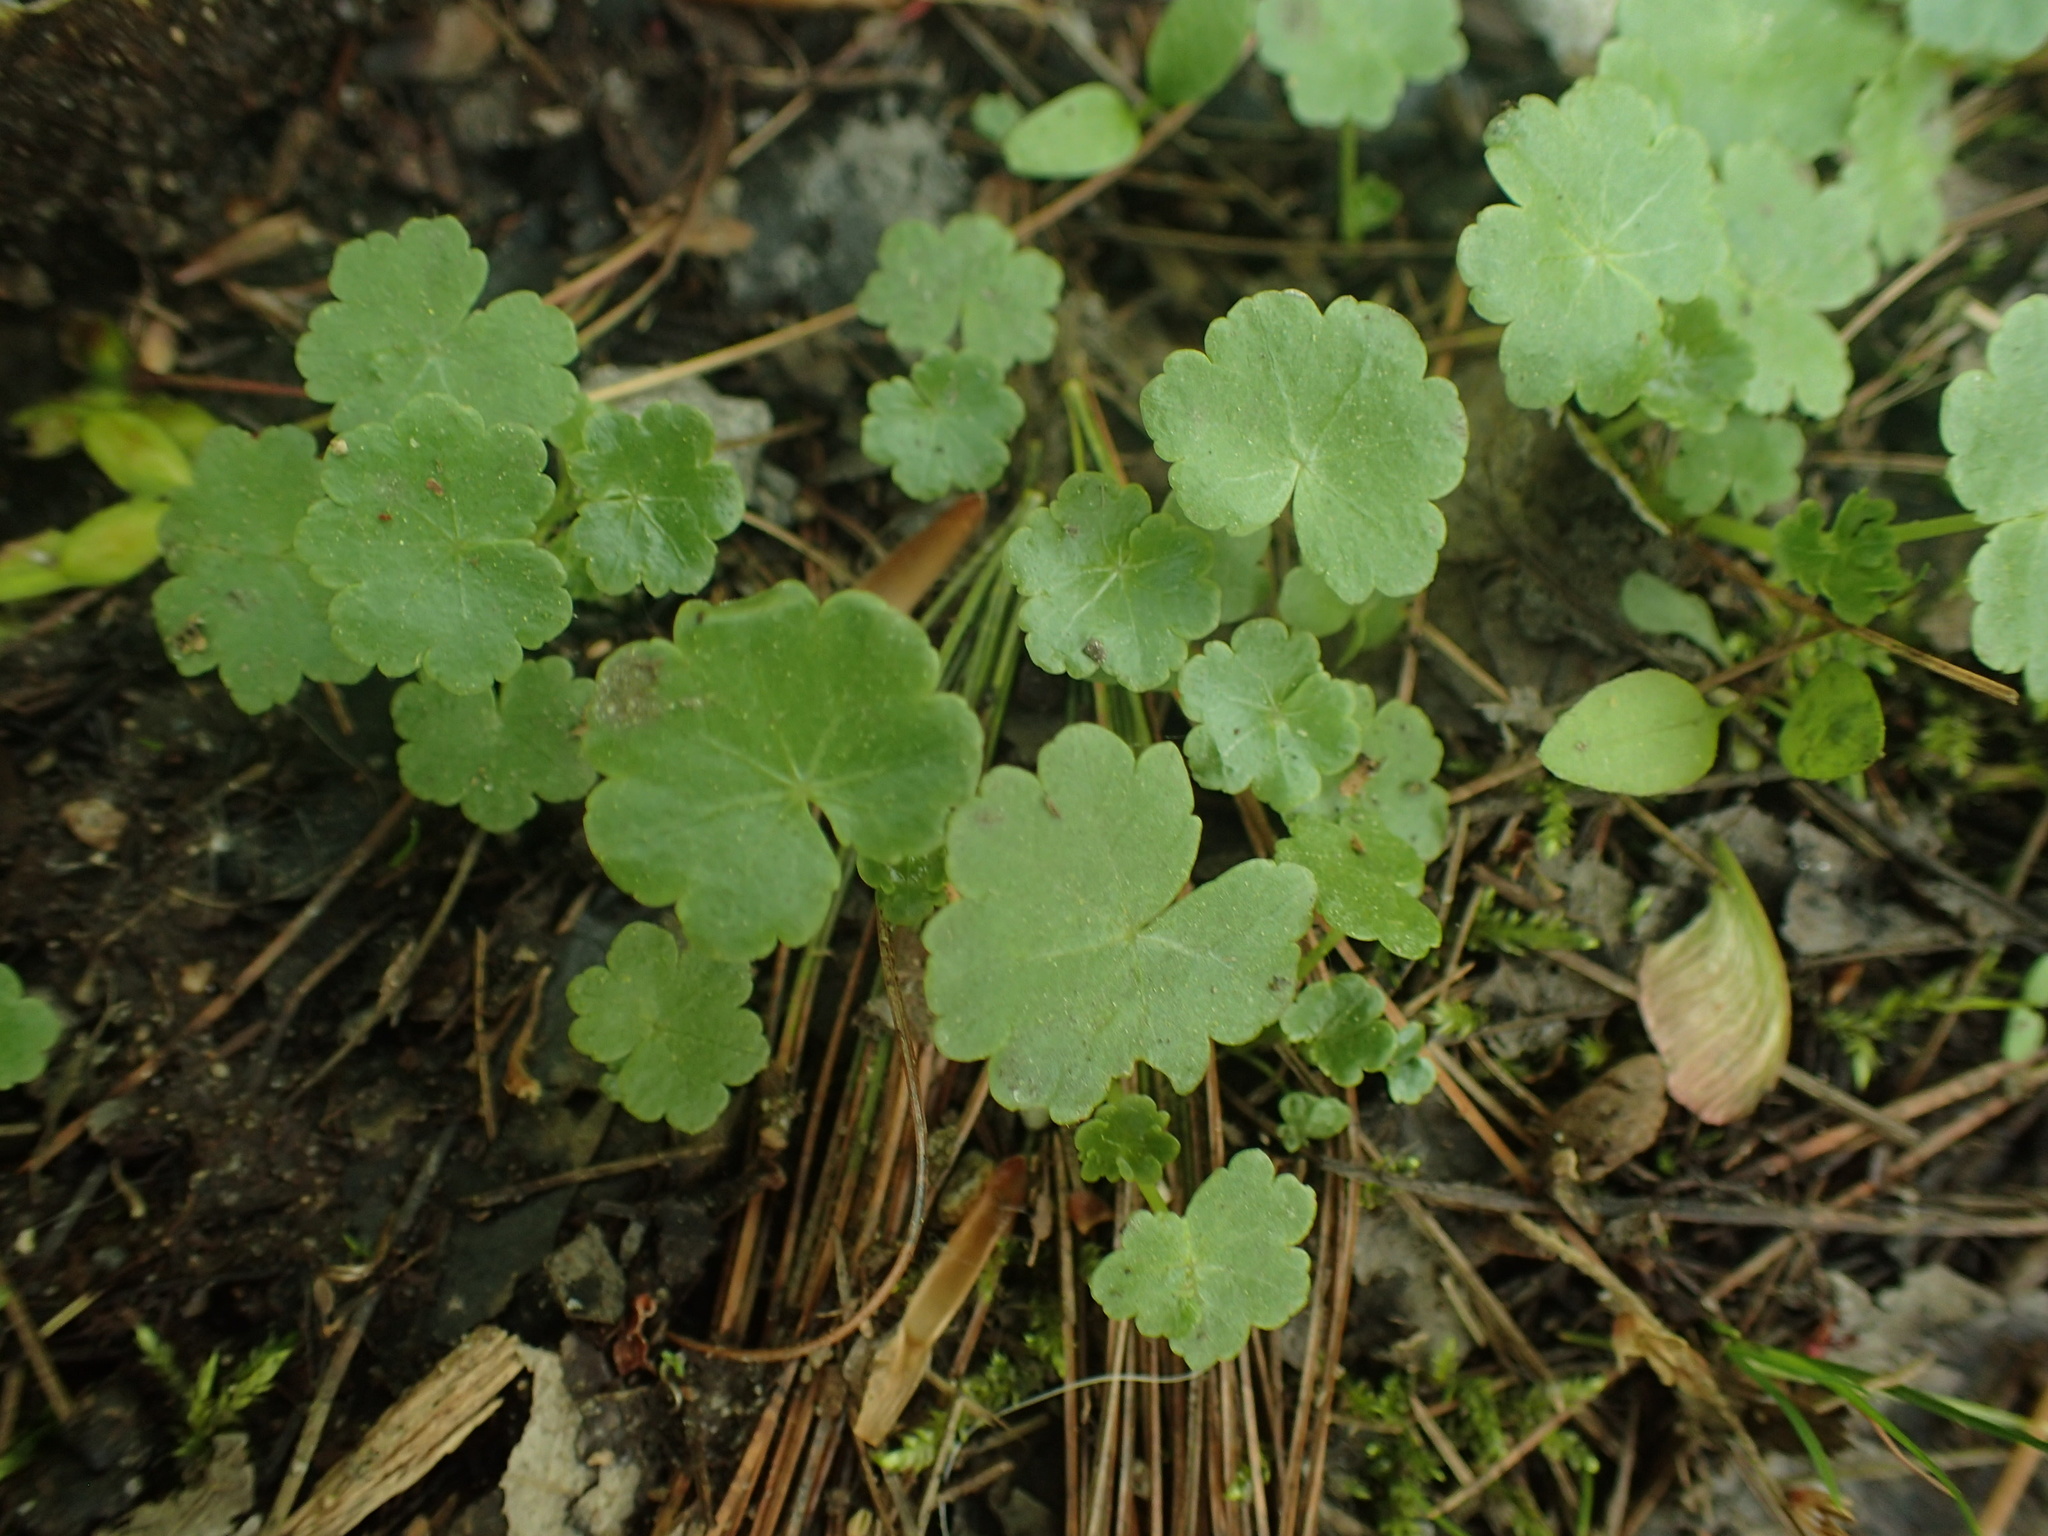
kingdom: Plantae
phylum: Tracheophyta
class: Magnoliopsida
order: Apiales
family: Araliaceae
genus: Hydrocotyle
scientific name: Hydrocotyle americana
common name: American water-pennywort
